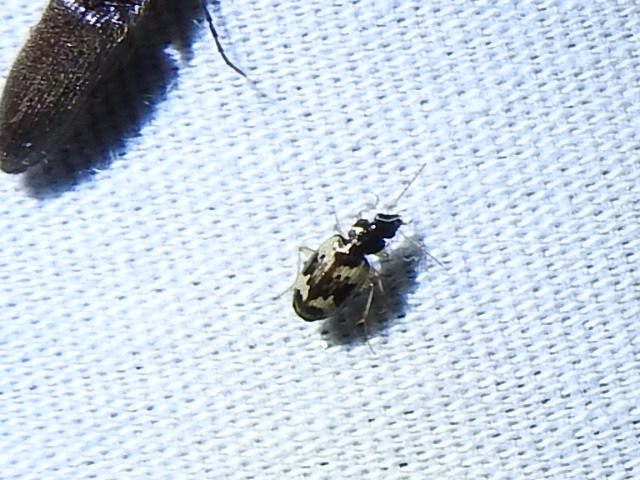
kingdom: Animalia
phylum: Arthropoda
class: Insecta
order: Coleoptera
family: Carabidae
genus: Tetragonoderus
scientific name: Tetragonoderus fasciatus
